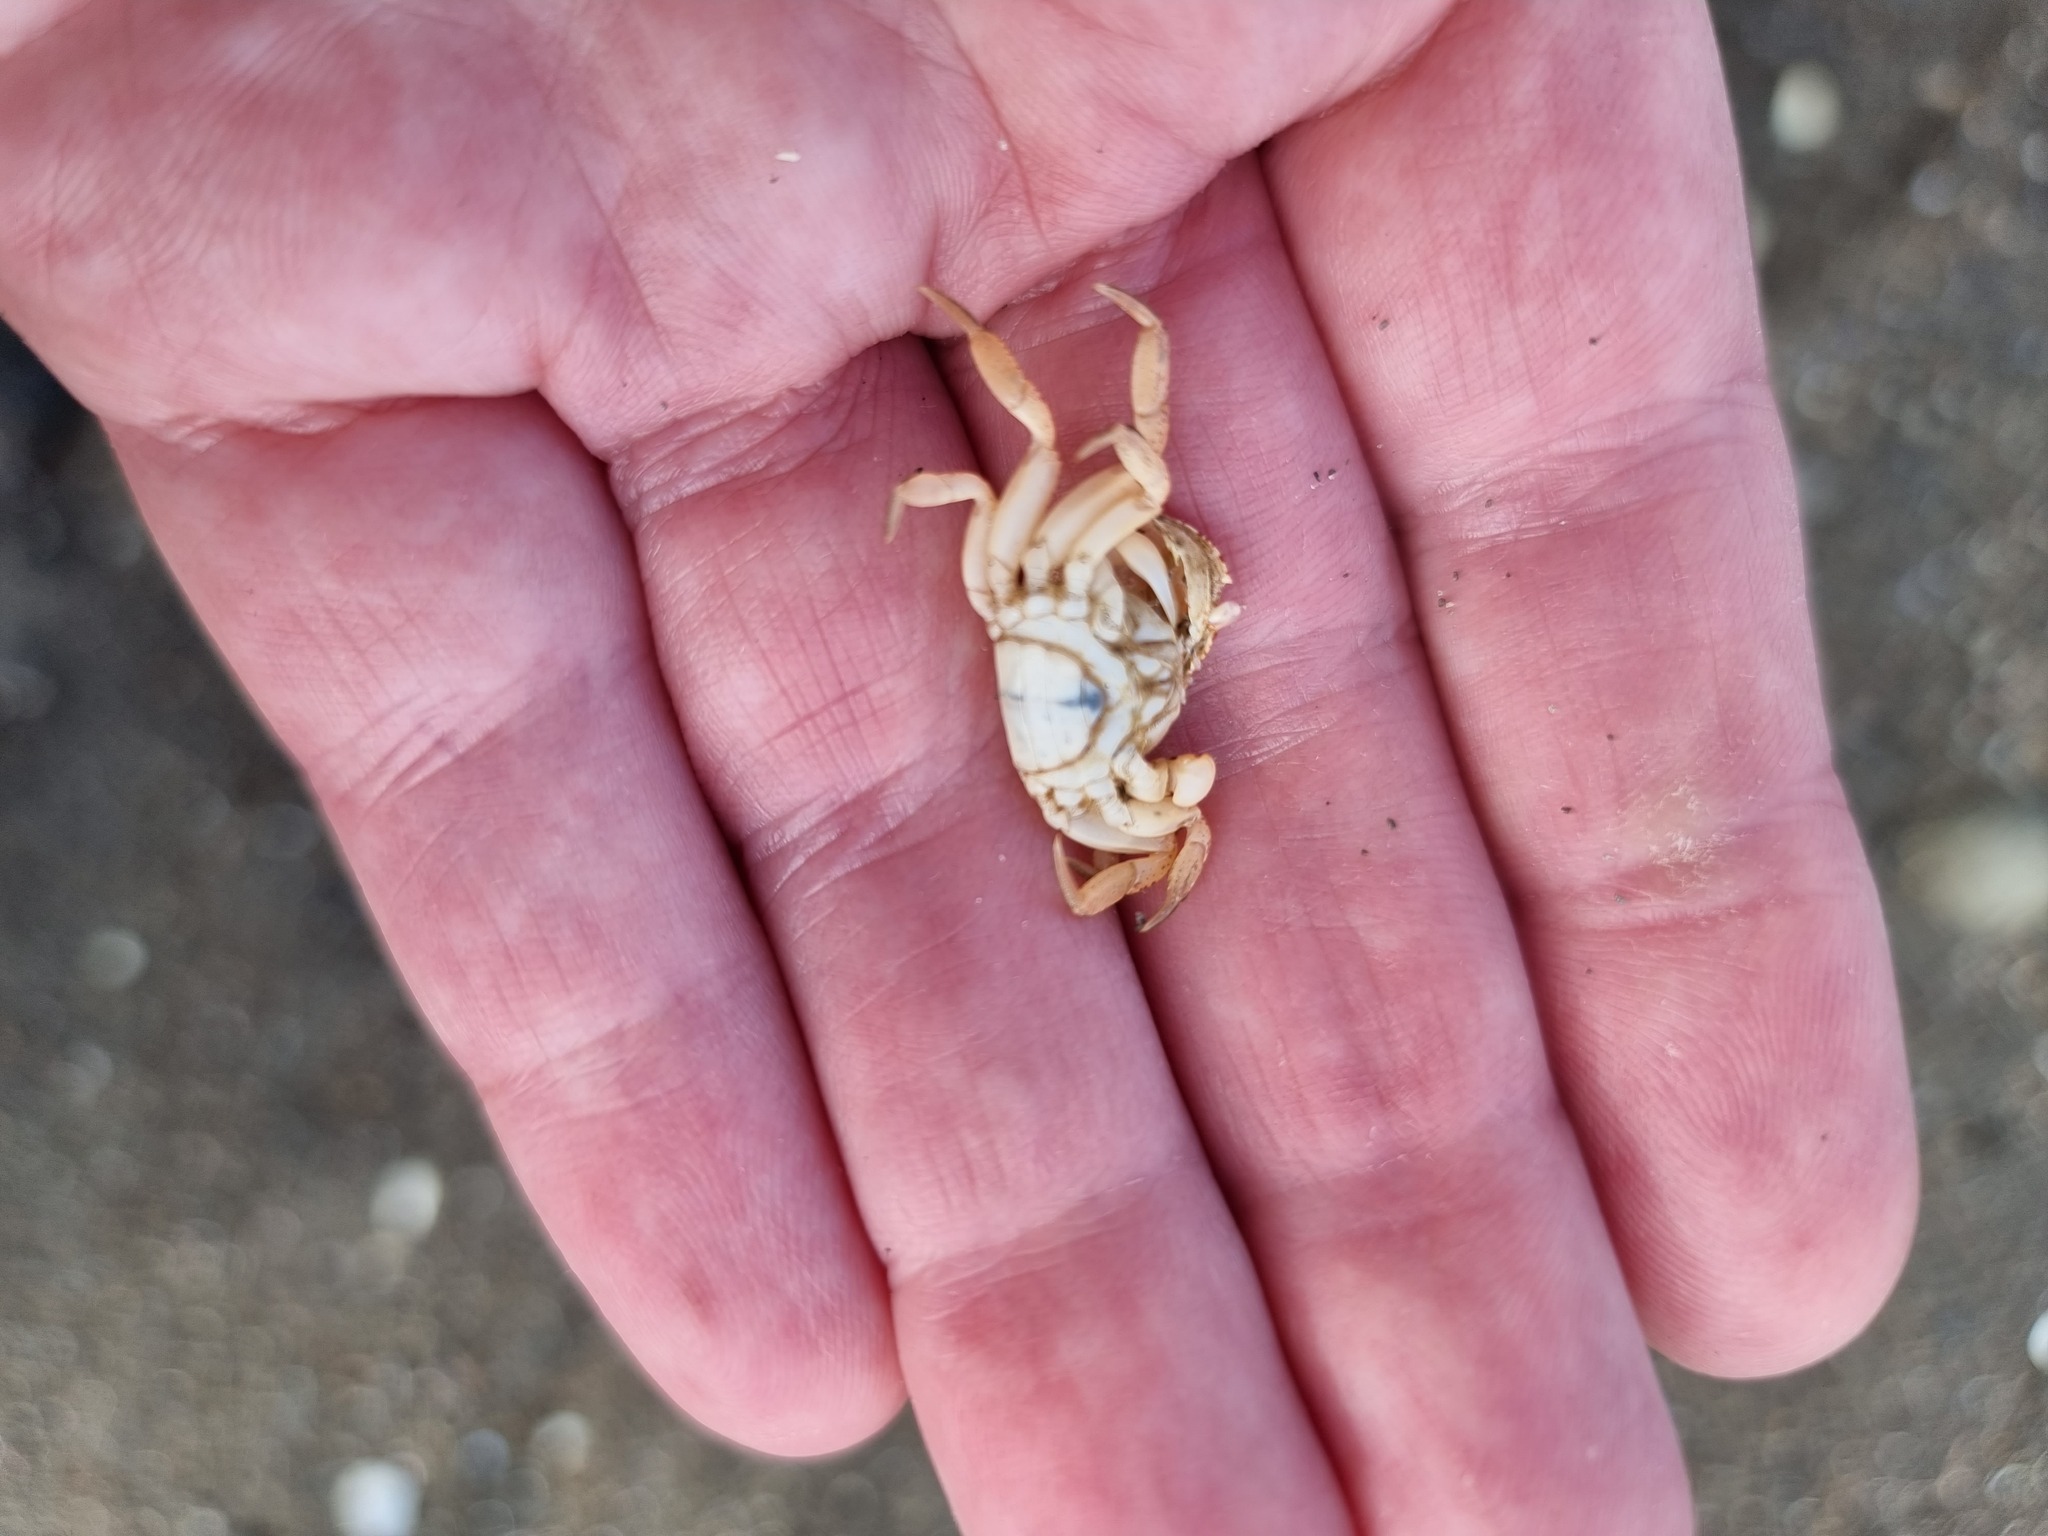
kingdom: Animalia
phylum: Arthropoda
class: Malacostraca
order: Decapoda
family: Varunidae
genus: Cyclograpsus
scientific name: Cyclograpsus lavauxi
